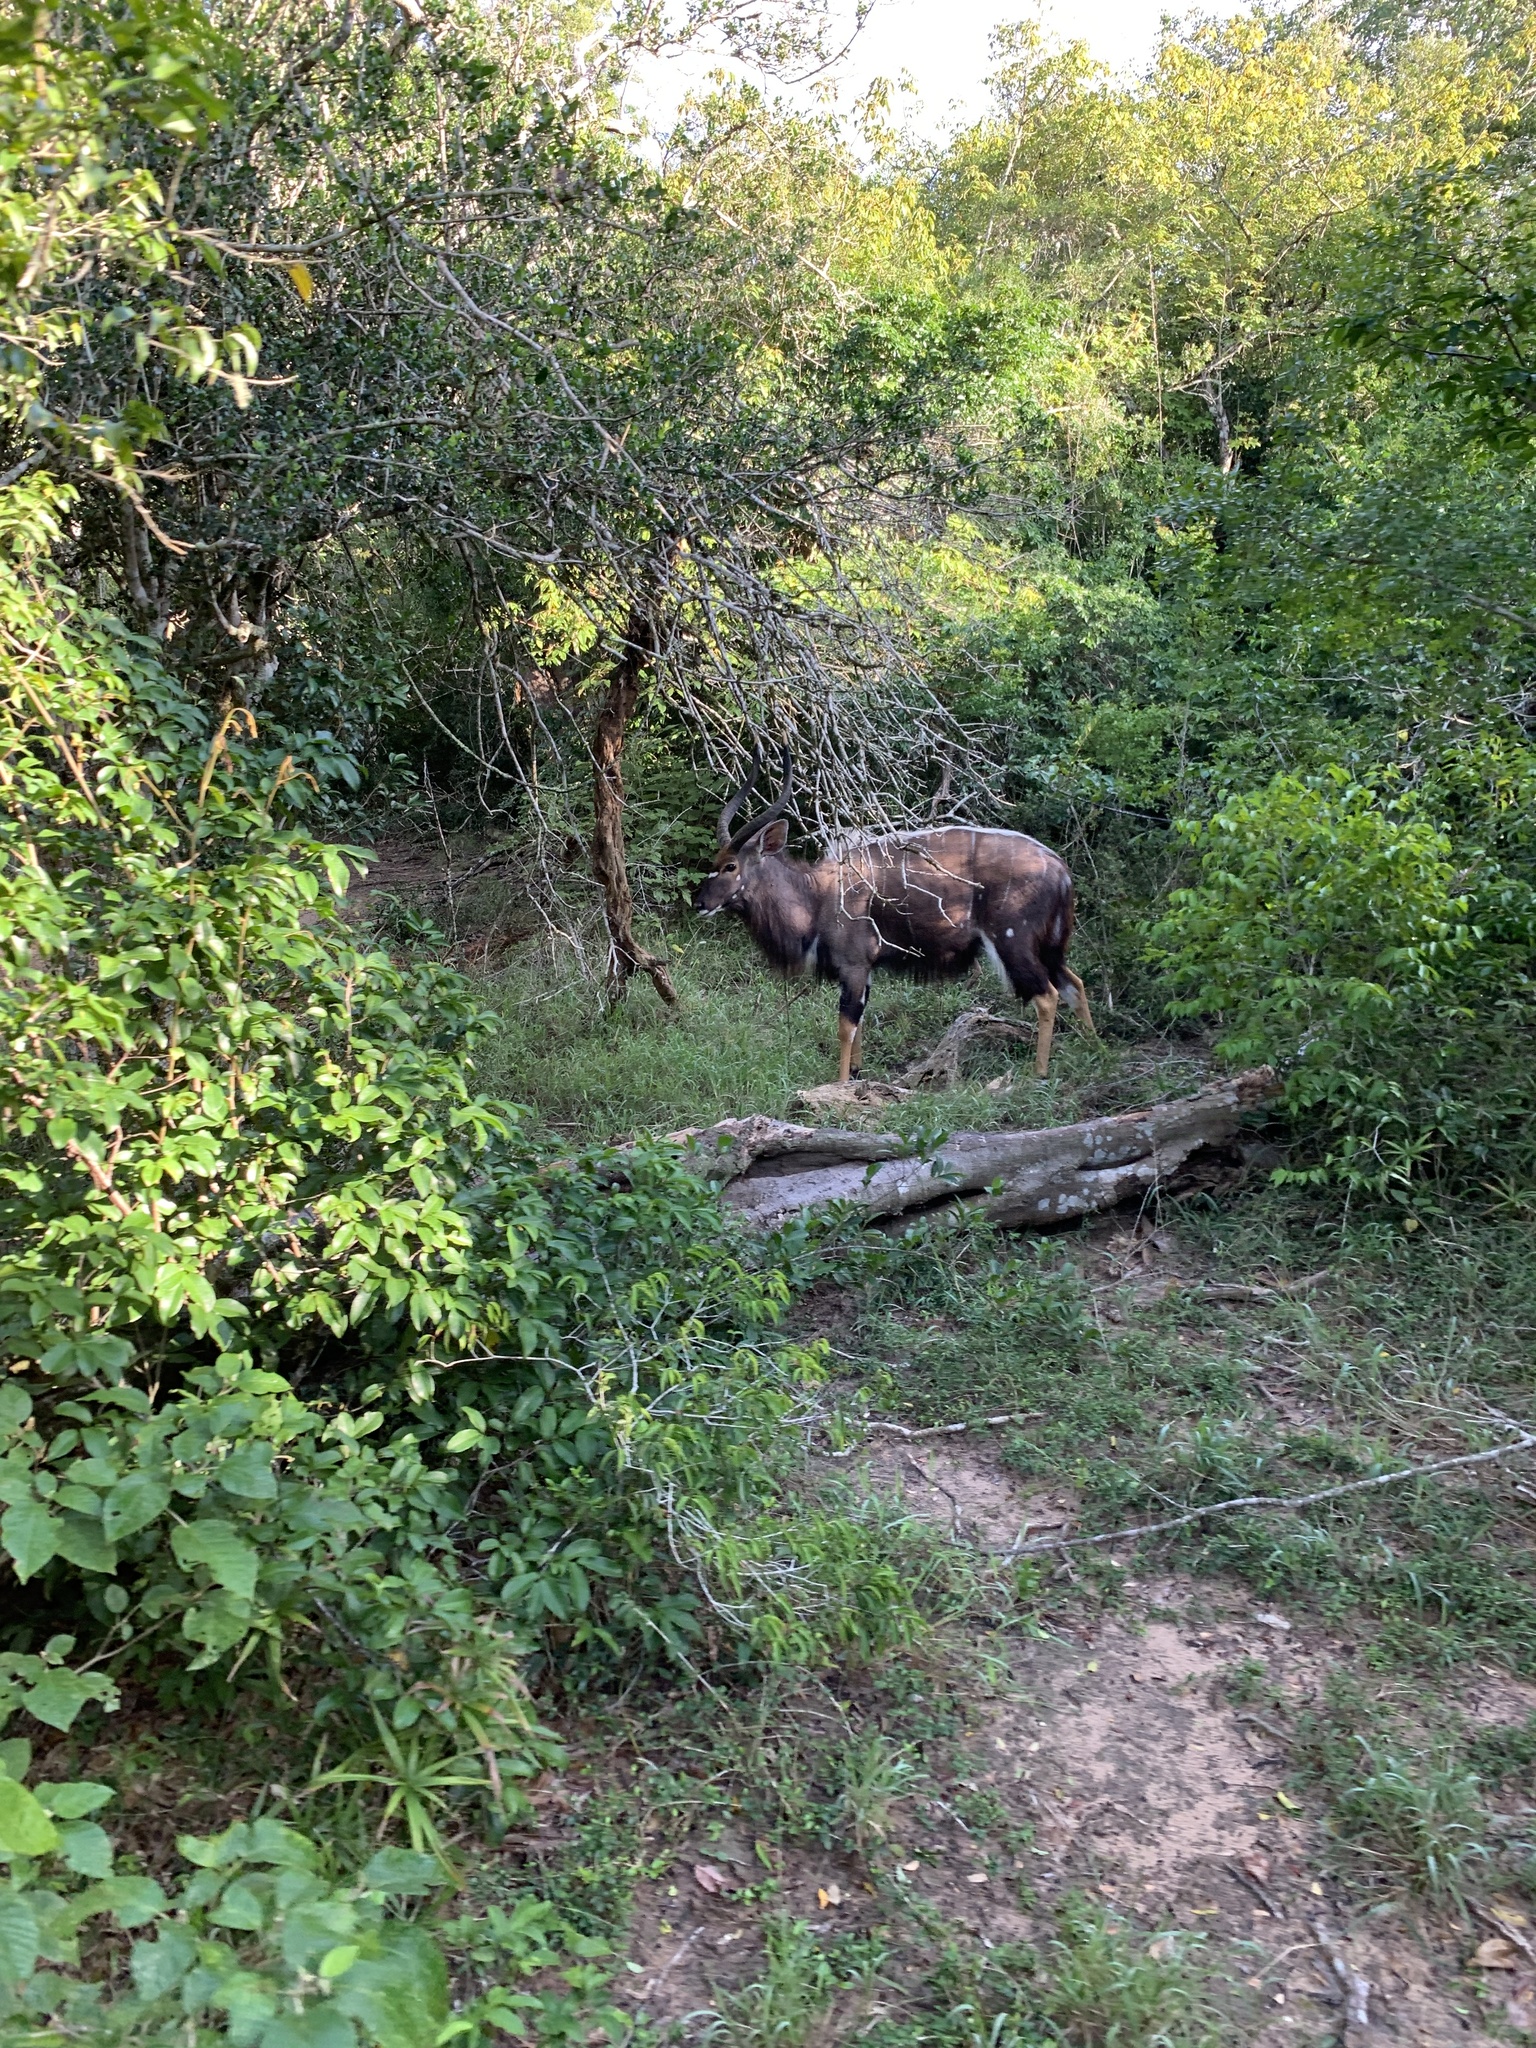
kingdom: Animalia
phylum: Chordata
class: Mammalia
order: Artiodactyla
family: Bovidae
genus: Tragelaphus
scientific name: Tragelaphus angasii
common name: Nyala
